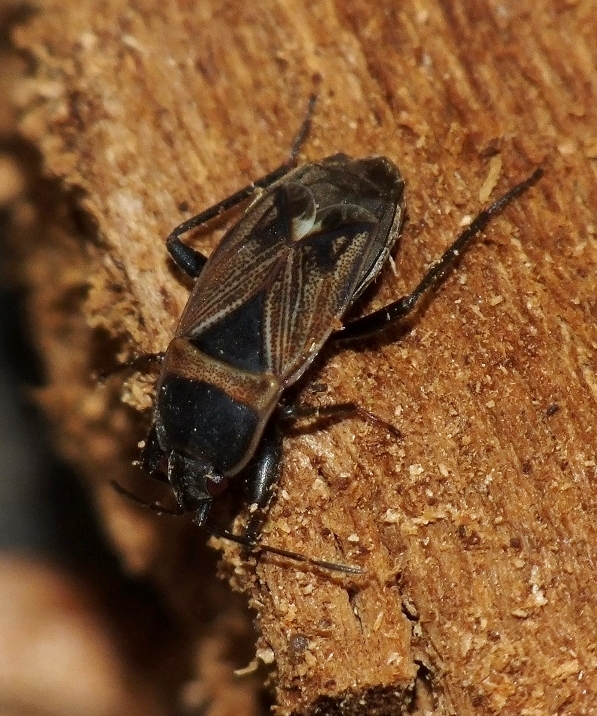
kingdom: Animalia
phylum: Arthropoda
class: Insecta
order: Hemiptera
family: Rhyparochromidae
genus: Bleteogonus
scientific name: Bleteogonus beckeri
